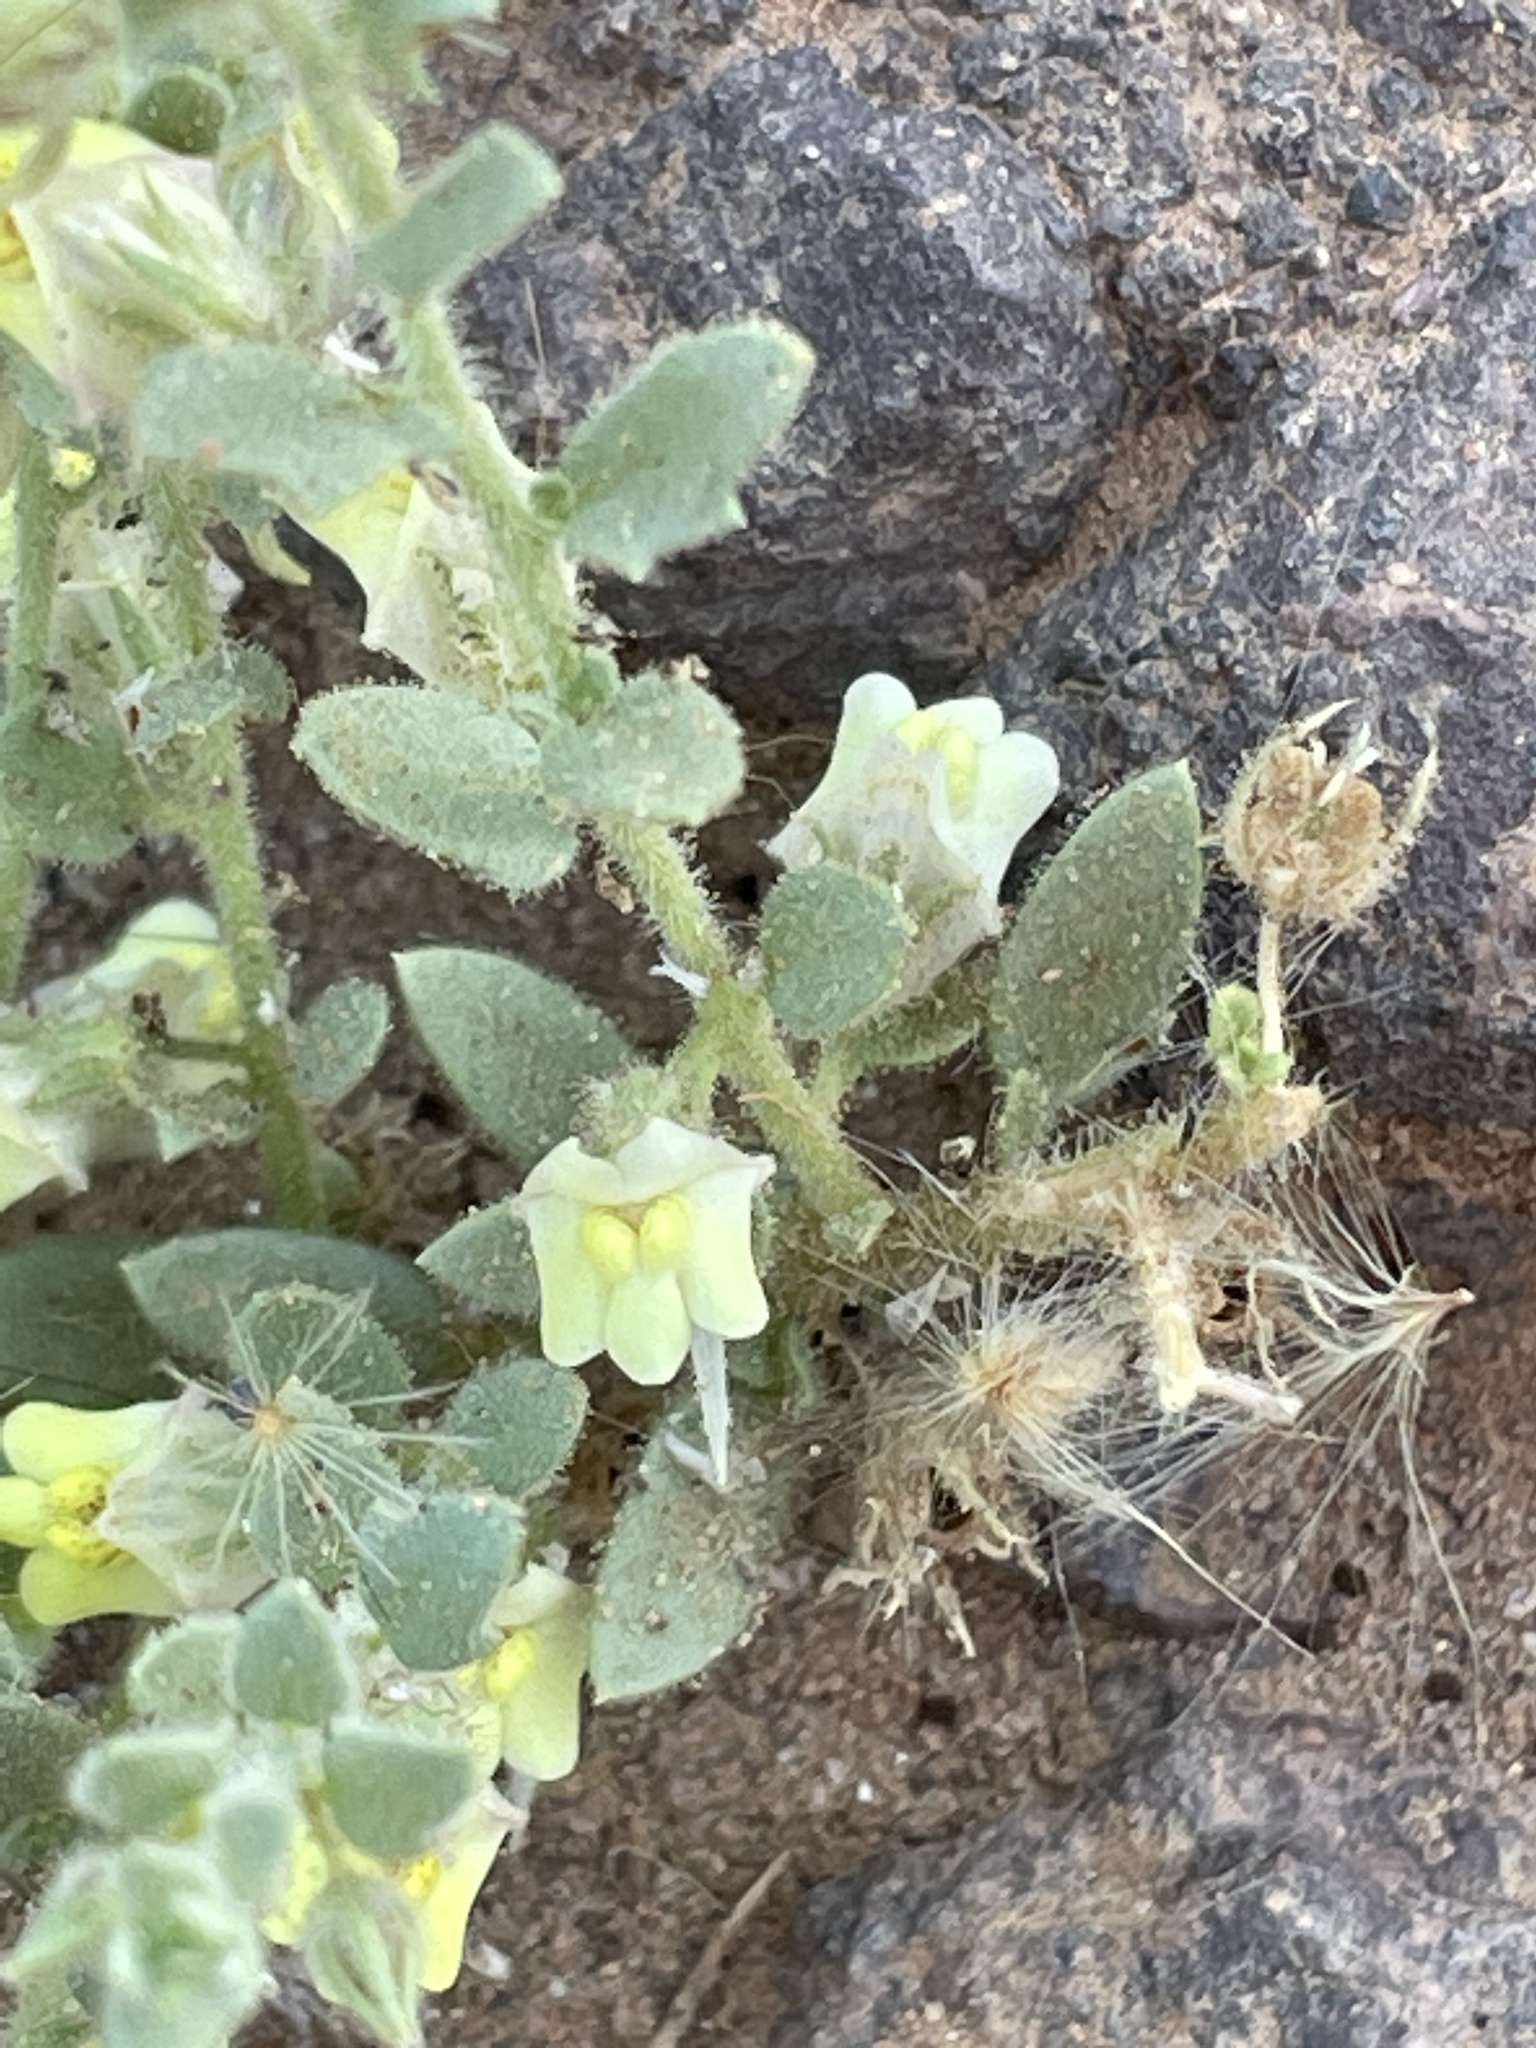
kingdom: Plantae
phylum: Tracheophyta
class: Magnoliopsida
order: Lamiales
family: Plantaginaceae
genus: Kickxia
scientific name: Kickxia aegyptiaca
